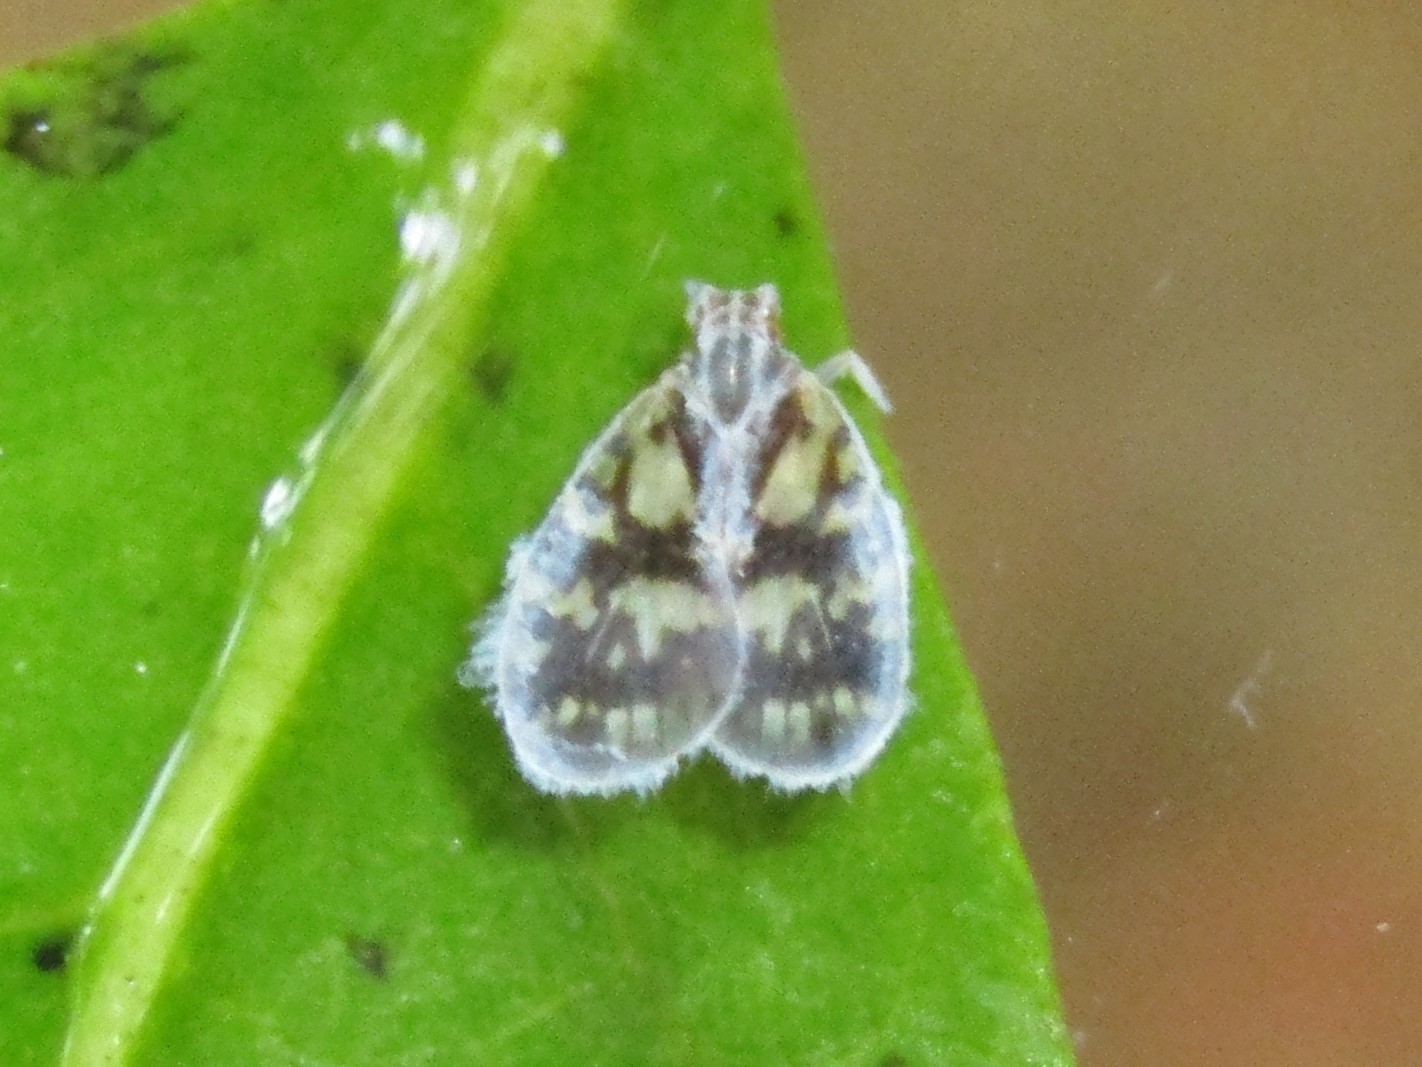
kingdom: Animalia
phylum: Arthropoda
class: Insecta
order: Hemiptera
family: Cixiidae
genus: Bothriocera
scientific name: Bothriocera cognita
